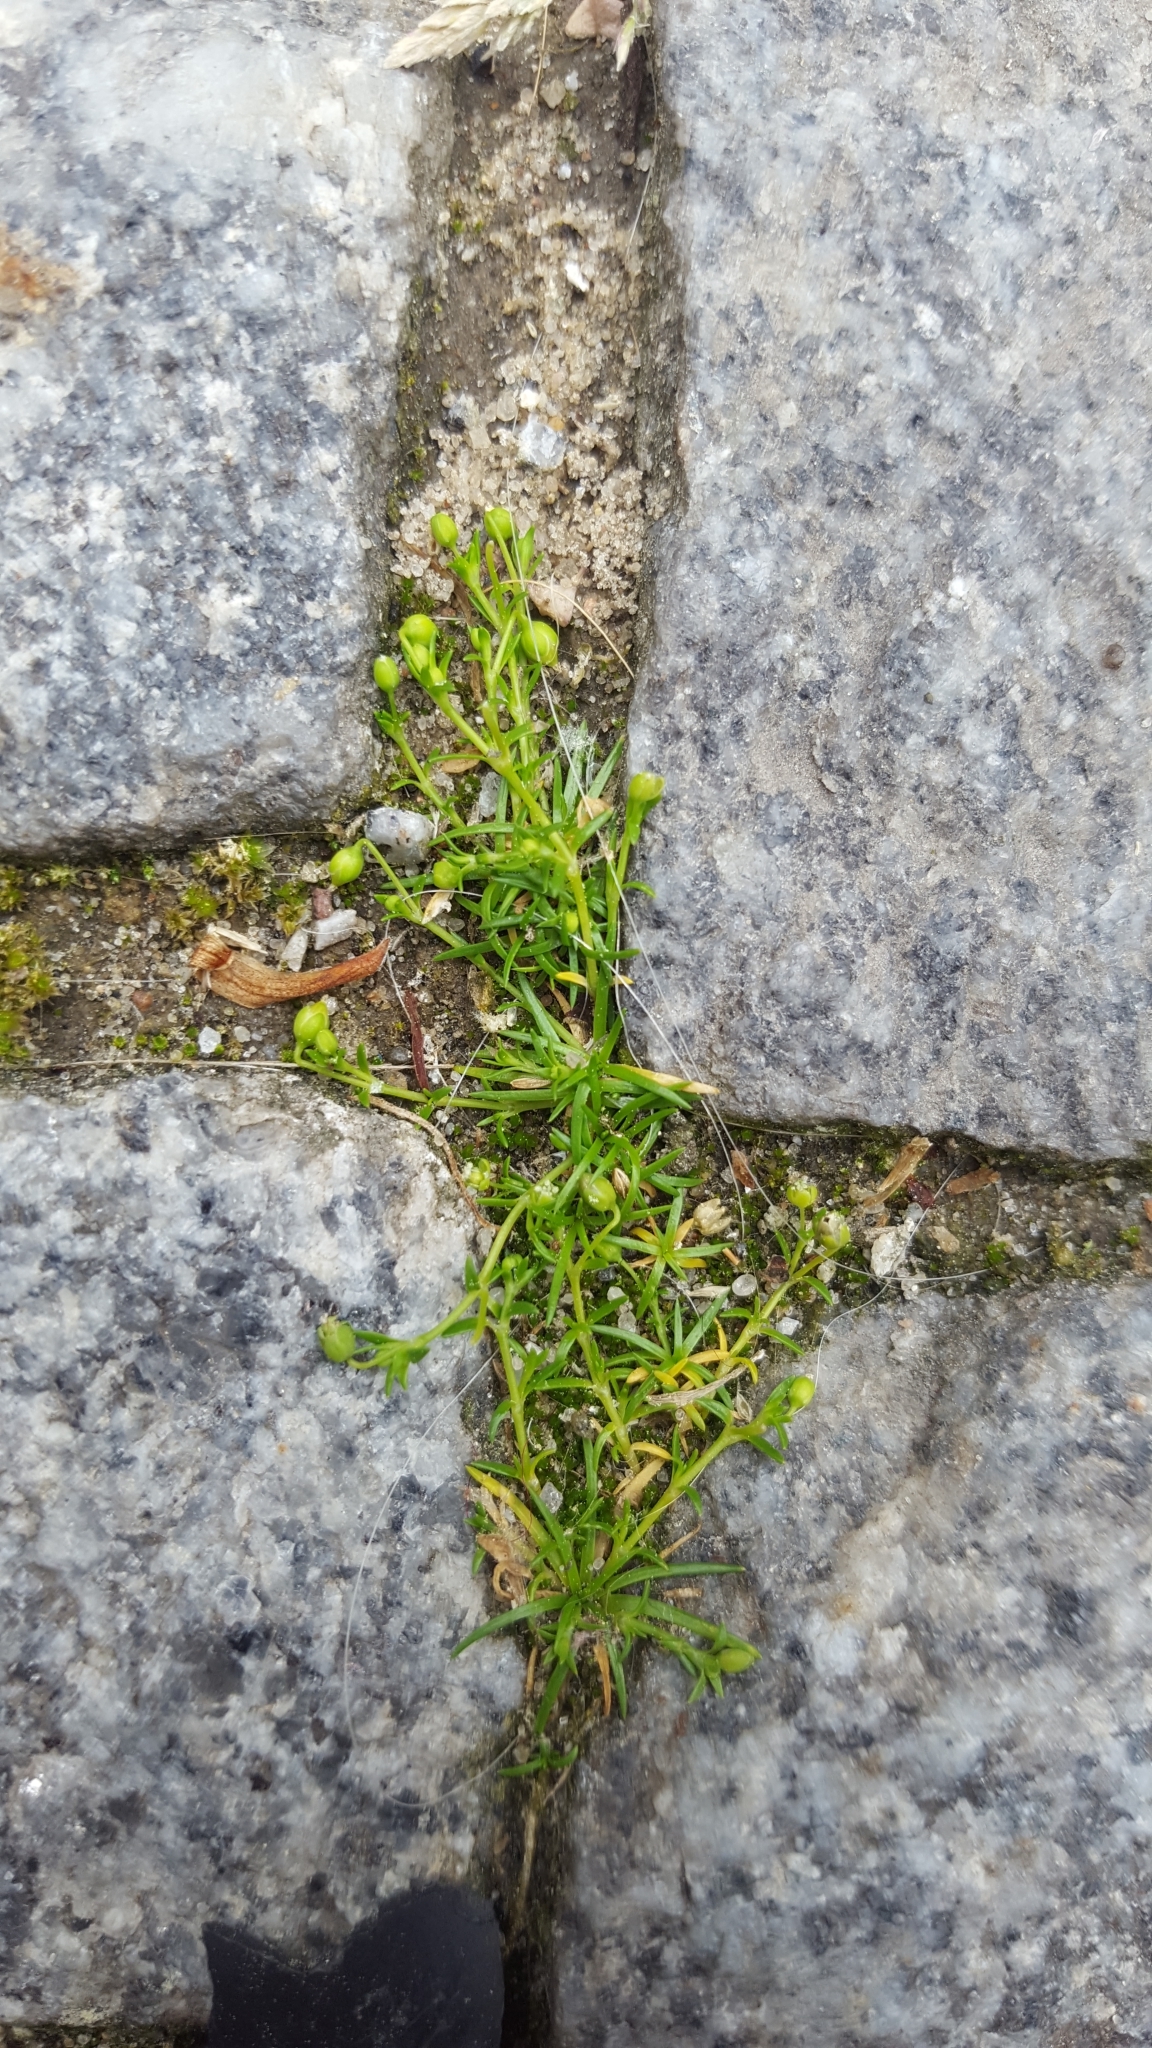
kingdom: Plantae
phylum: Tracheophyta
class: Magnoliopsida
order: Caryophyllales
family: Caryophyllaceae
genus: Sagina
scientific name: Sagina procumbens
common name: Procumbent pearlwort
